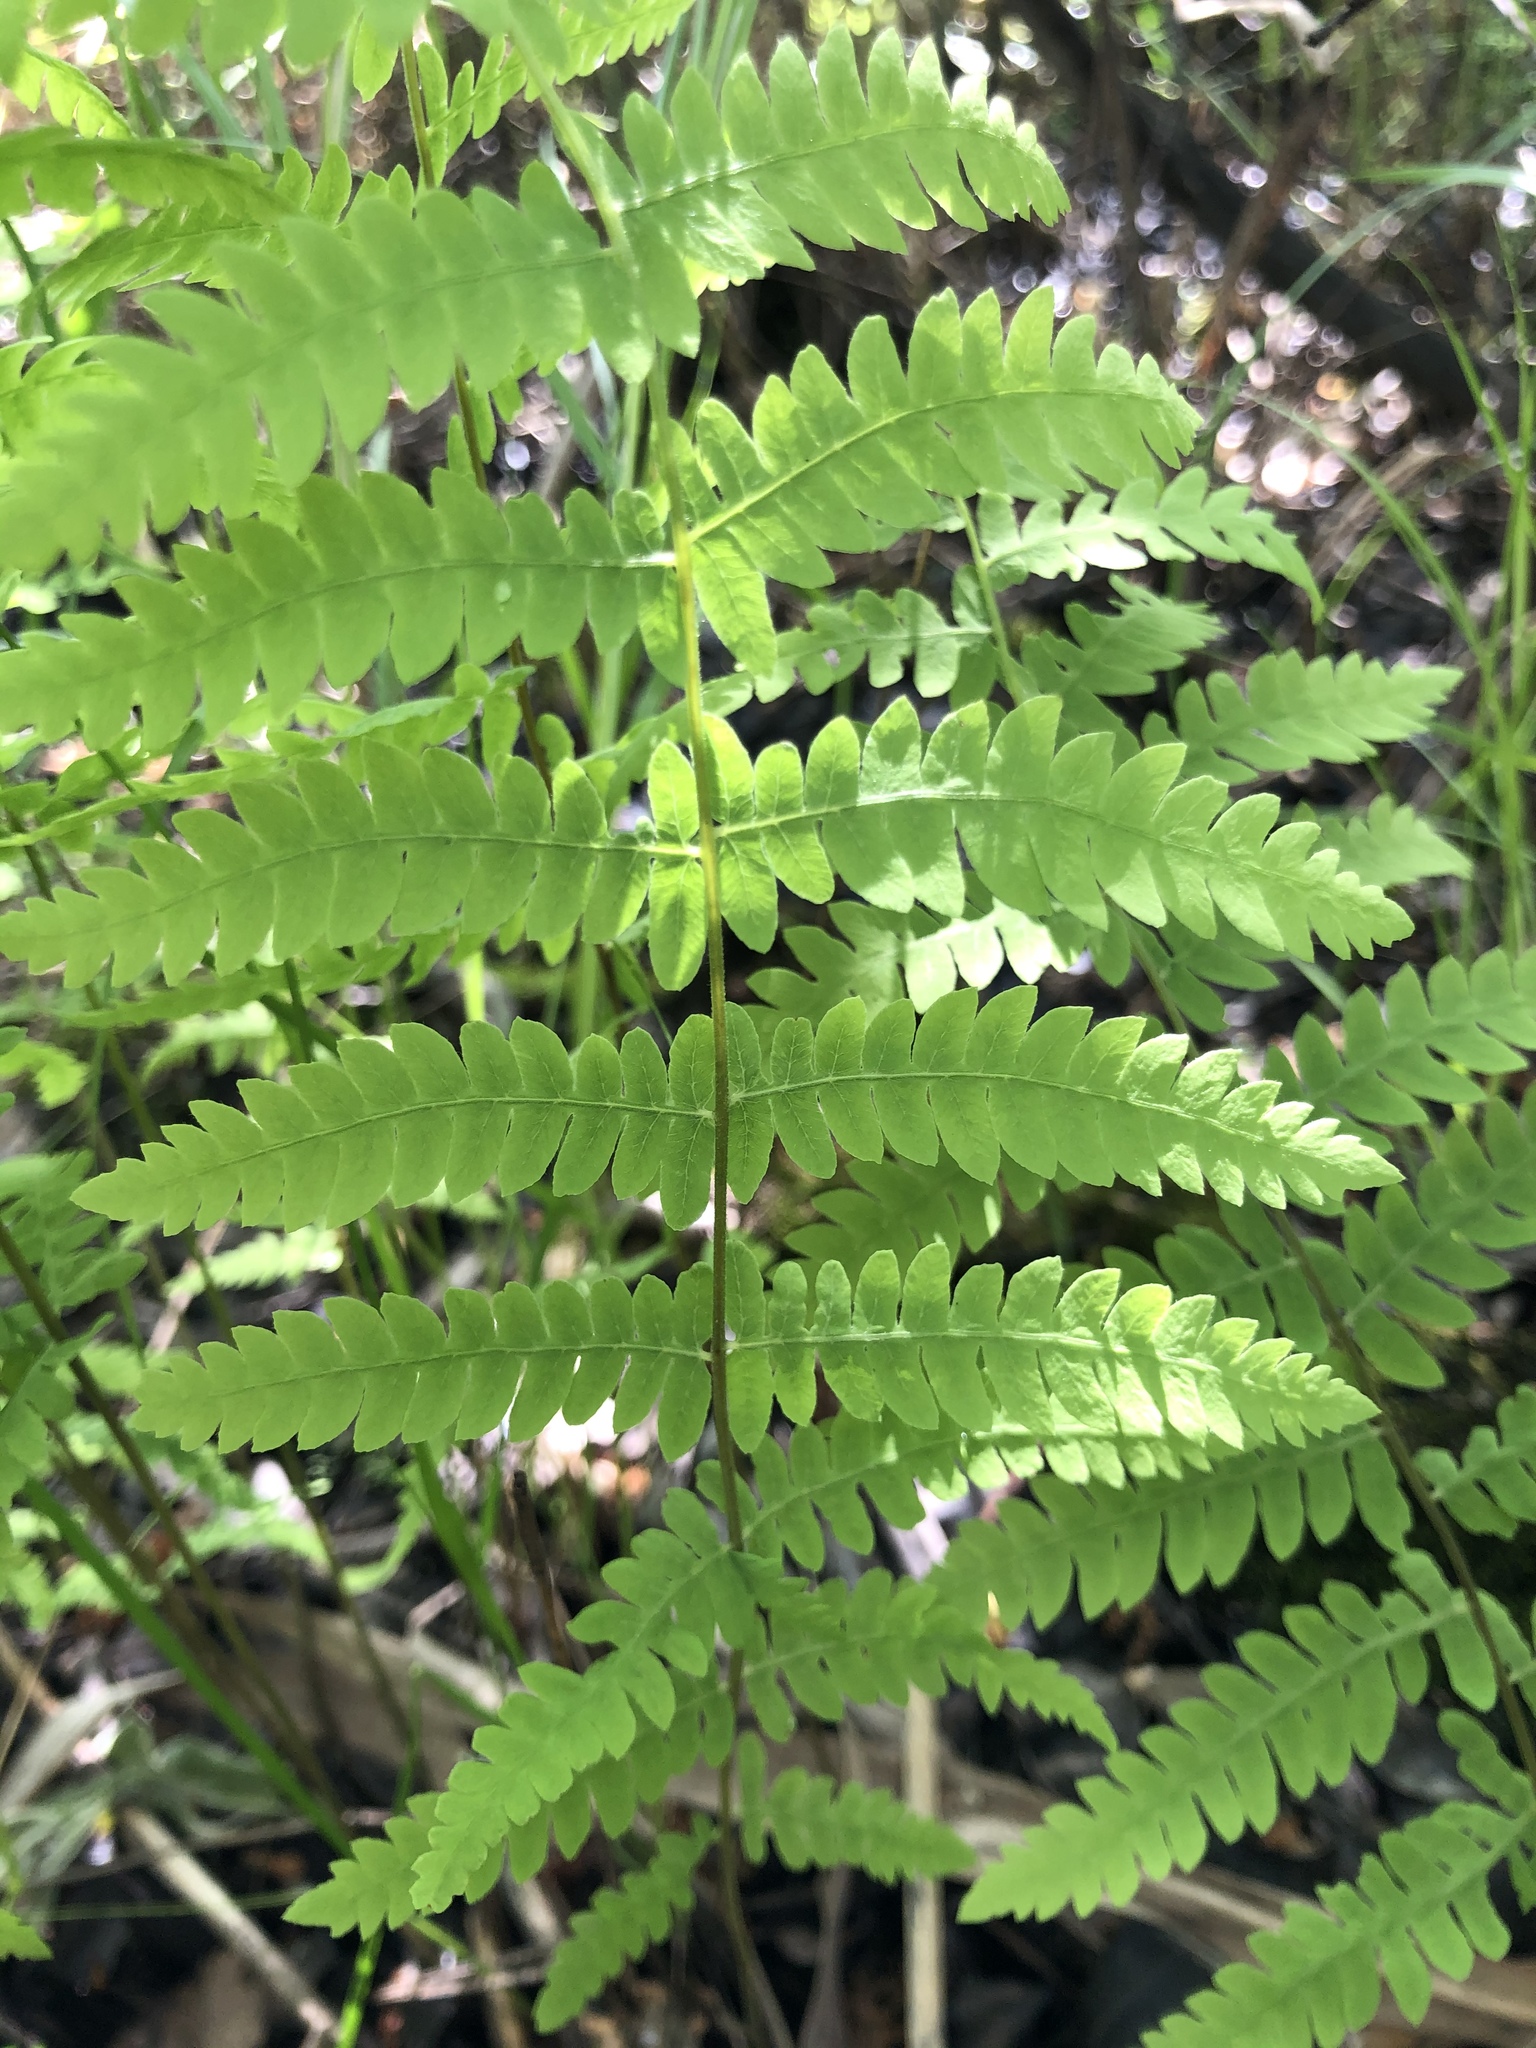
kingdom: Plantae
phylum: Tracheophyta
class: Polypodiopsida
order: Polypodiales
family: Thelypteridaceae
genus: Thelypteris
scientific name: Thelypteris palustris
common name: Marsh fern
